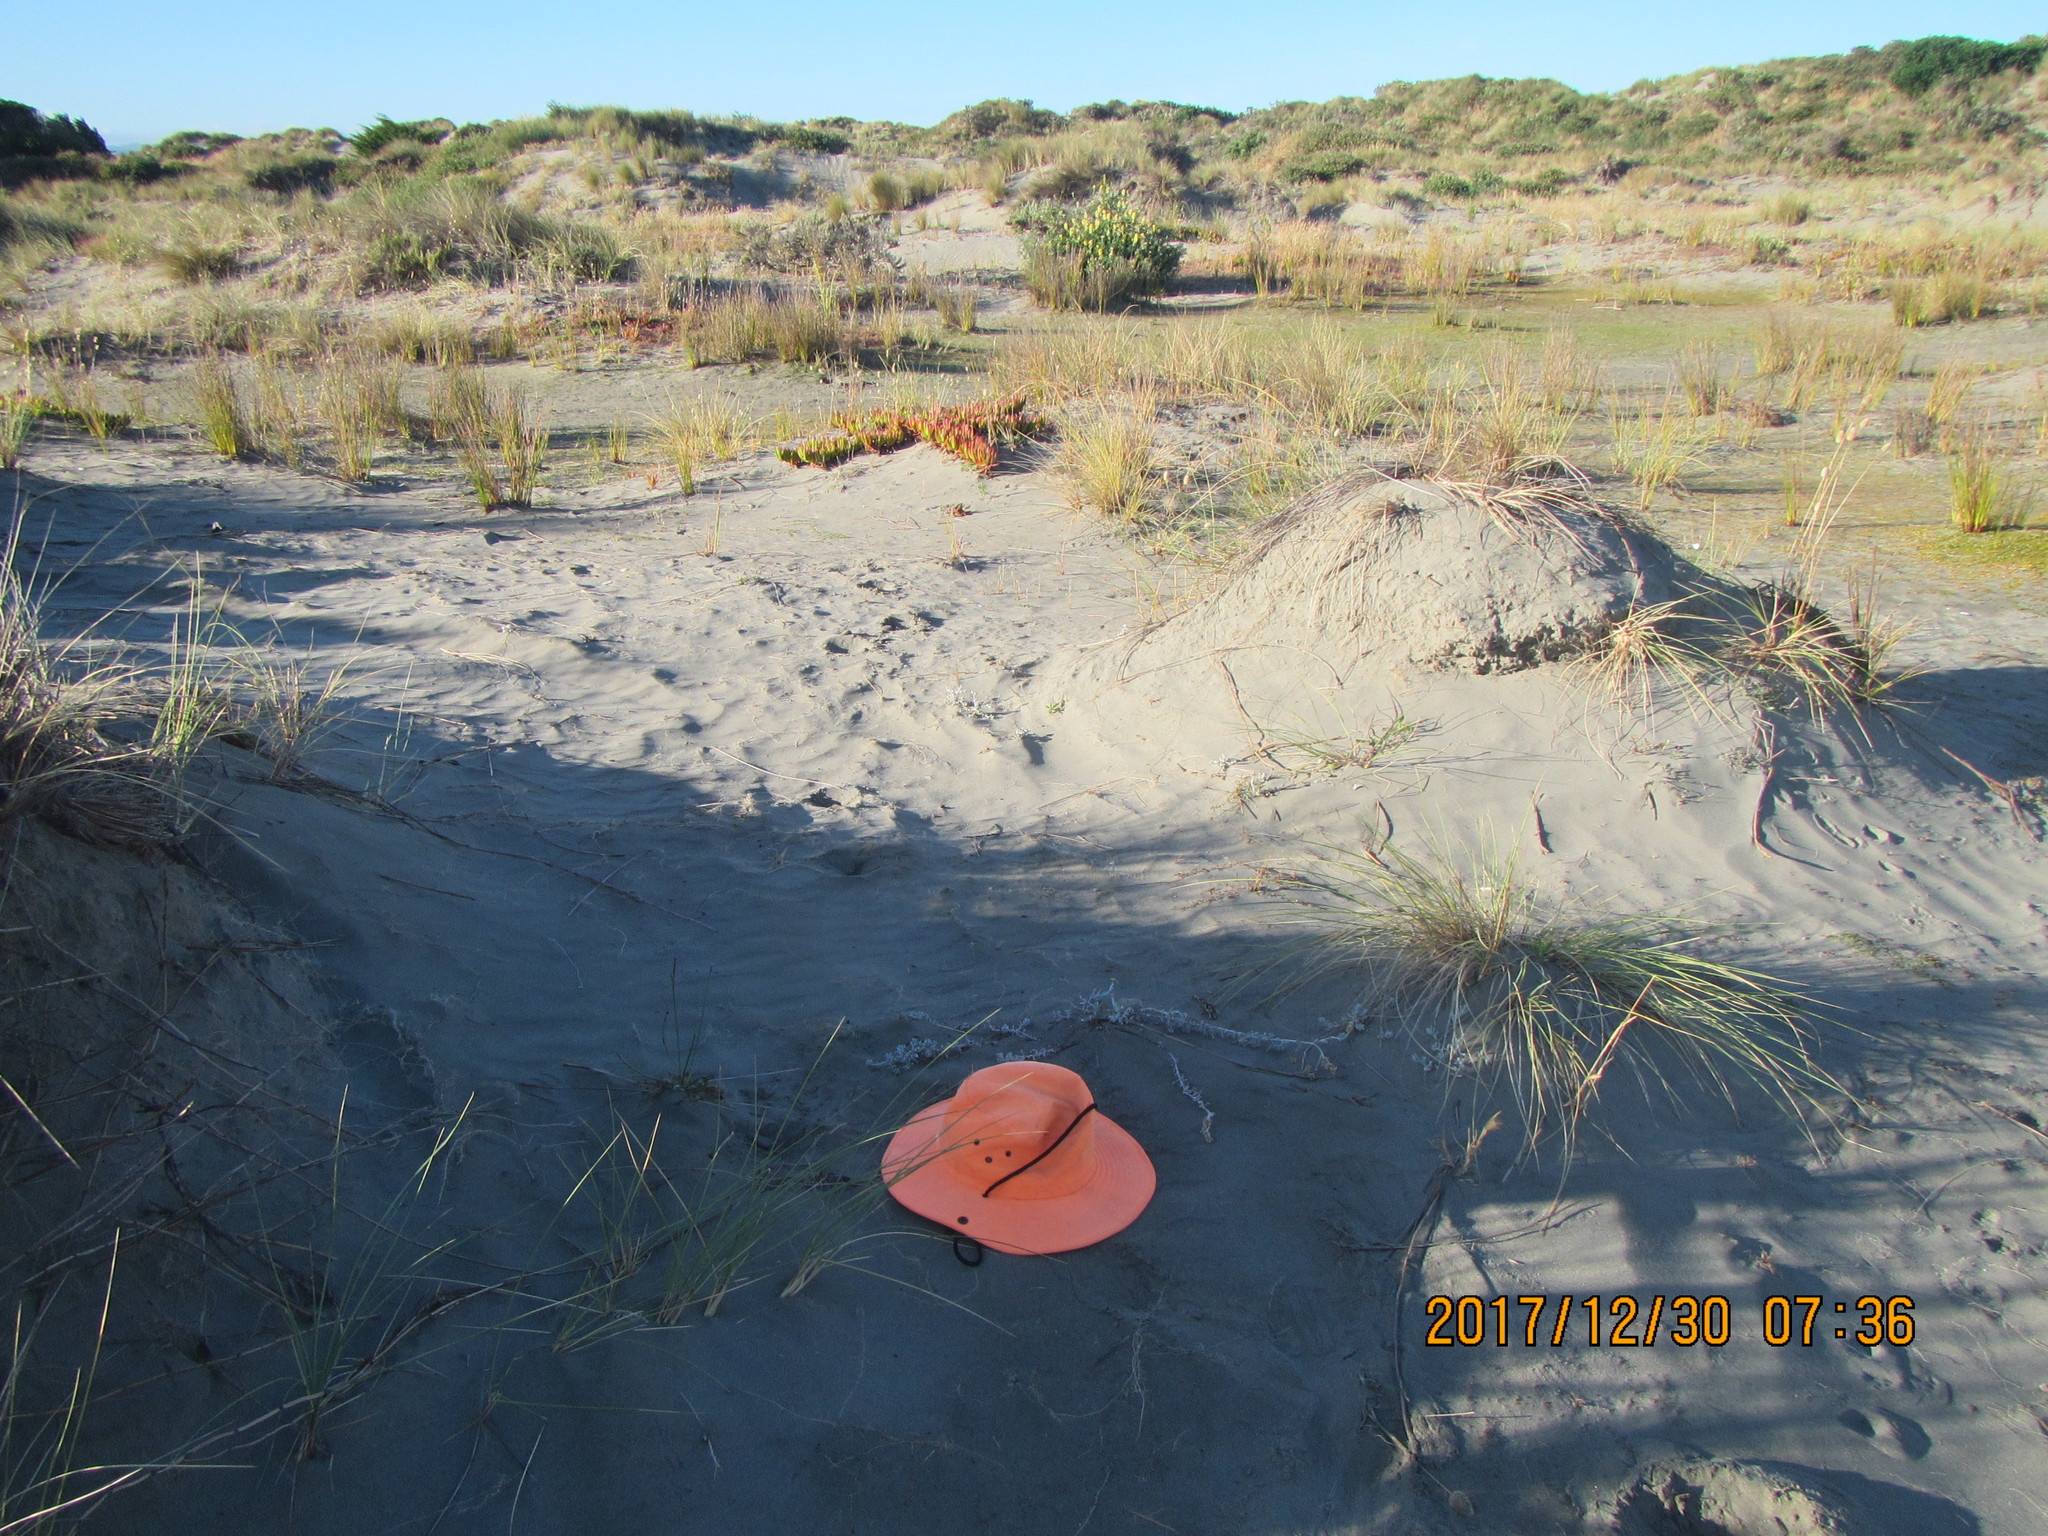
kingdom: Plantae
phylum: Tracheophyta
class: Magnoliopsida
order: Asterales
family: Asteraceae
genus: Helichrysum
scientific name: Helichrysum luteoalbum
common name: Daisy
